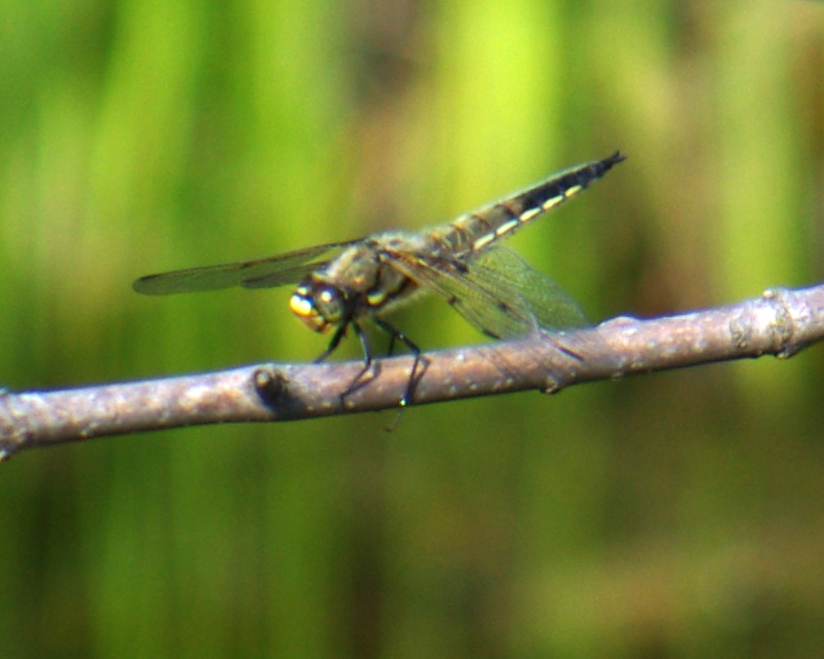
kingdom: Animalia
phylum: Arthropoda
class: Insecta
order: Odonata
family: Libellulidae
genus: Libellula
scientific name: Libellula quadrimaculata
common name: Four-spotted chaser
